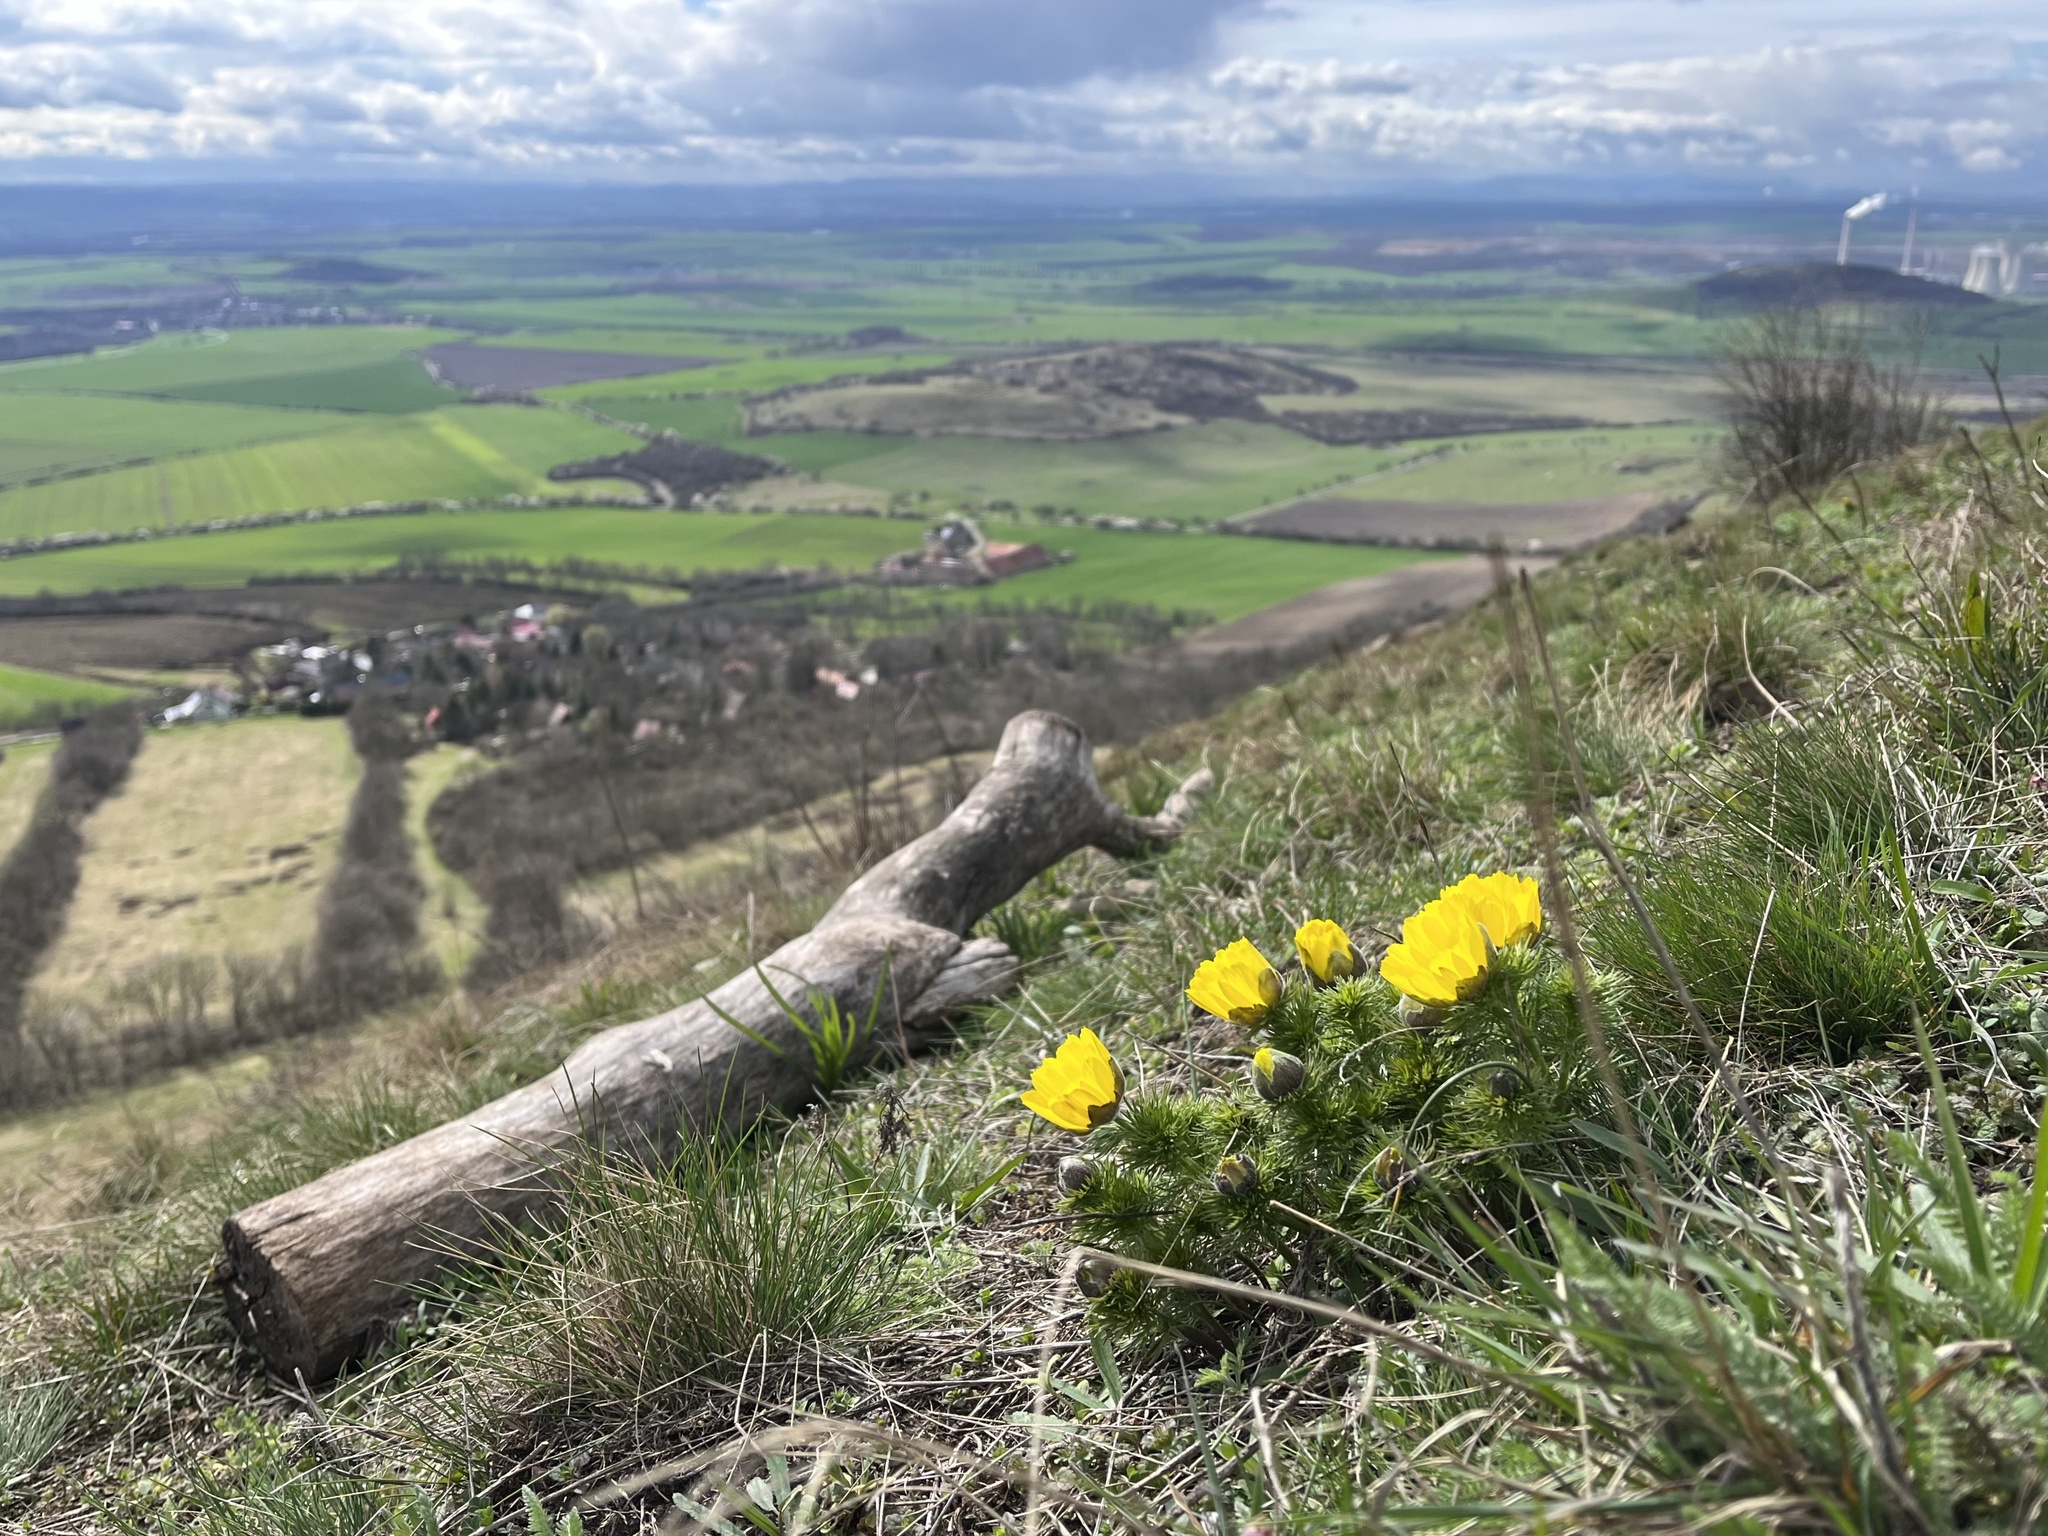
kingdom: Plantae
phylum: Tracheophyta
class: Magnoliopsida
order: Ranunculales
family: Ranunculaceae
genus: Adonis
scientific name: Adonis vernalis
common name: Yellow pheasants-eye
